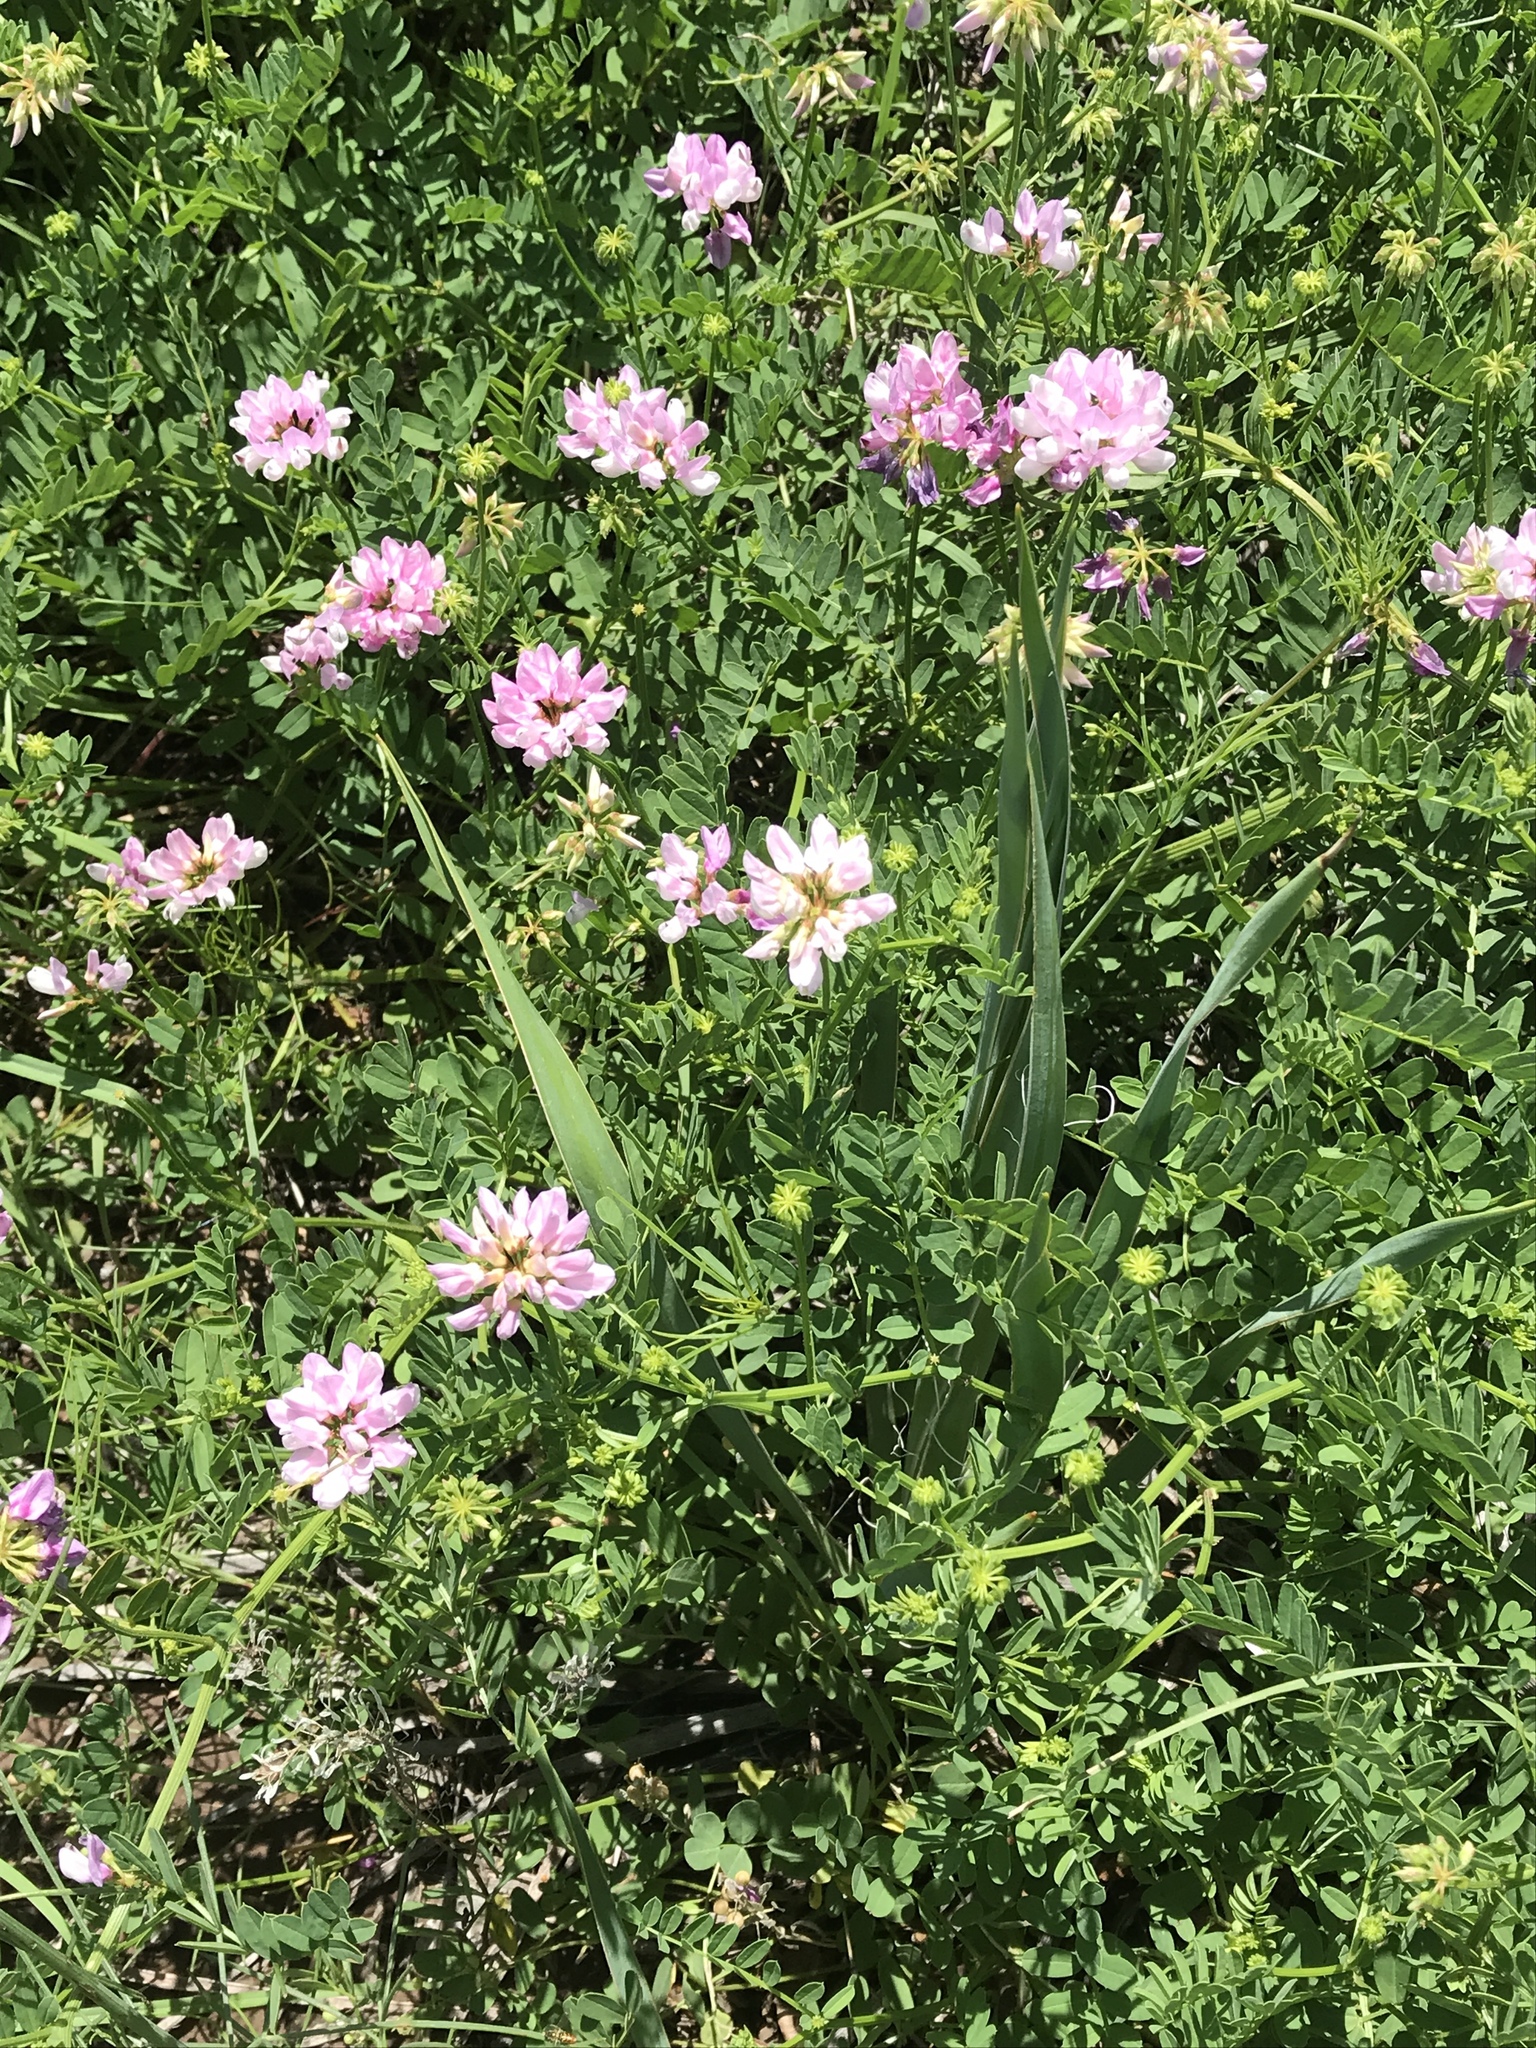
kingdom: Plantae
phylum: Tracheophyta
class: Magnoliopsida
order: Fabales
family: Fabaceae
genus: Coronilla
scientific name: Coronilla varia
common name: Crownvetch
